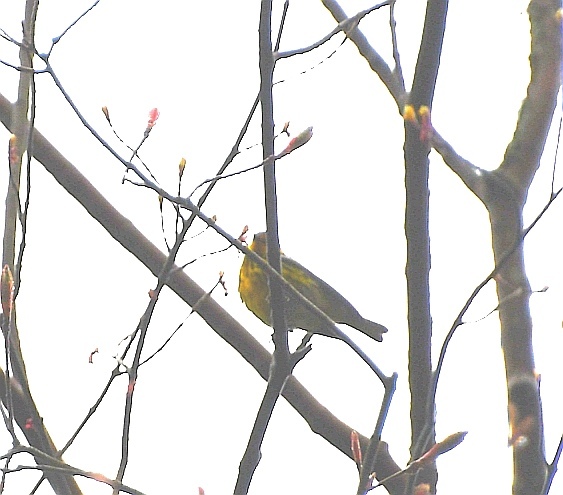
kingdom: Animalia
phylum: Chordata
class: Aves
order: Passeriformes
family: Parulidae
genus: Setophaga
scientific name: Setophaga tigrina
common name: Cape may warbler
